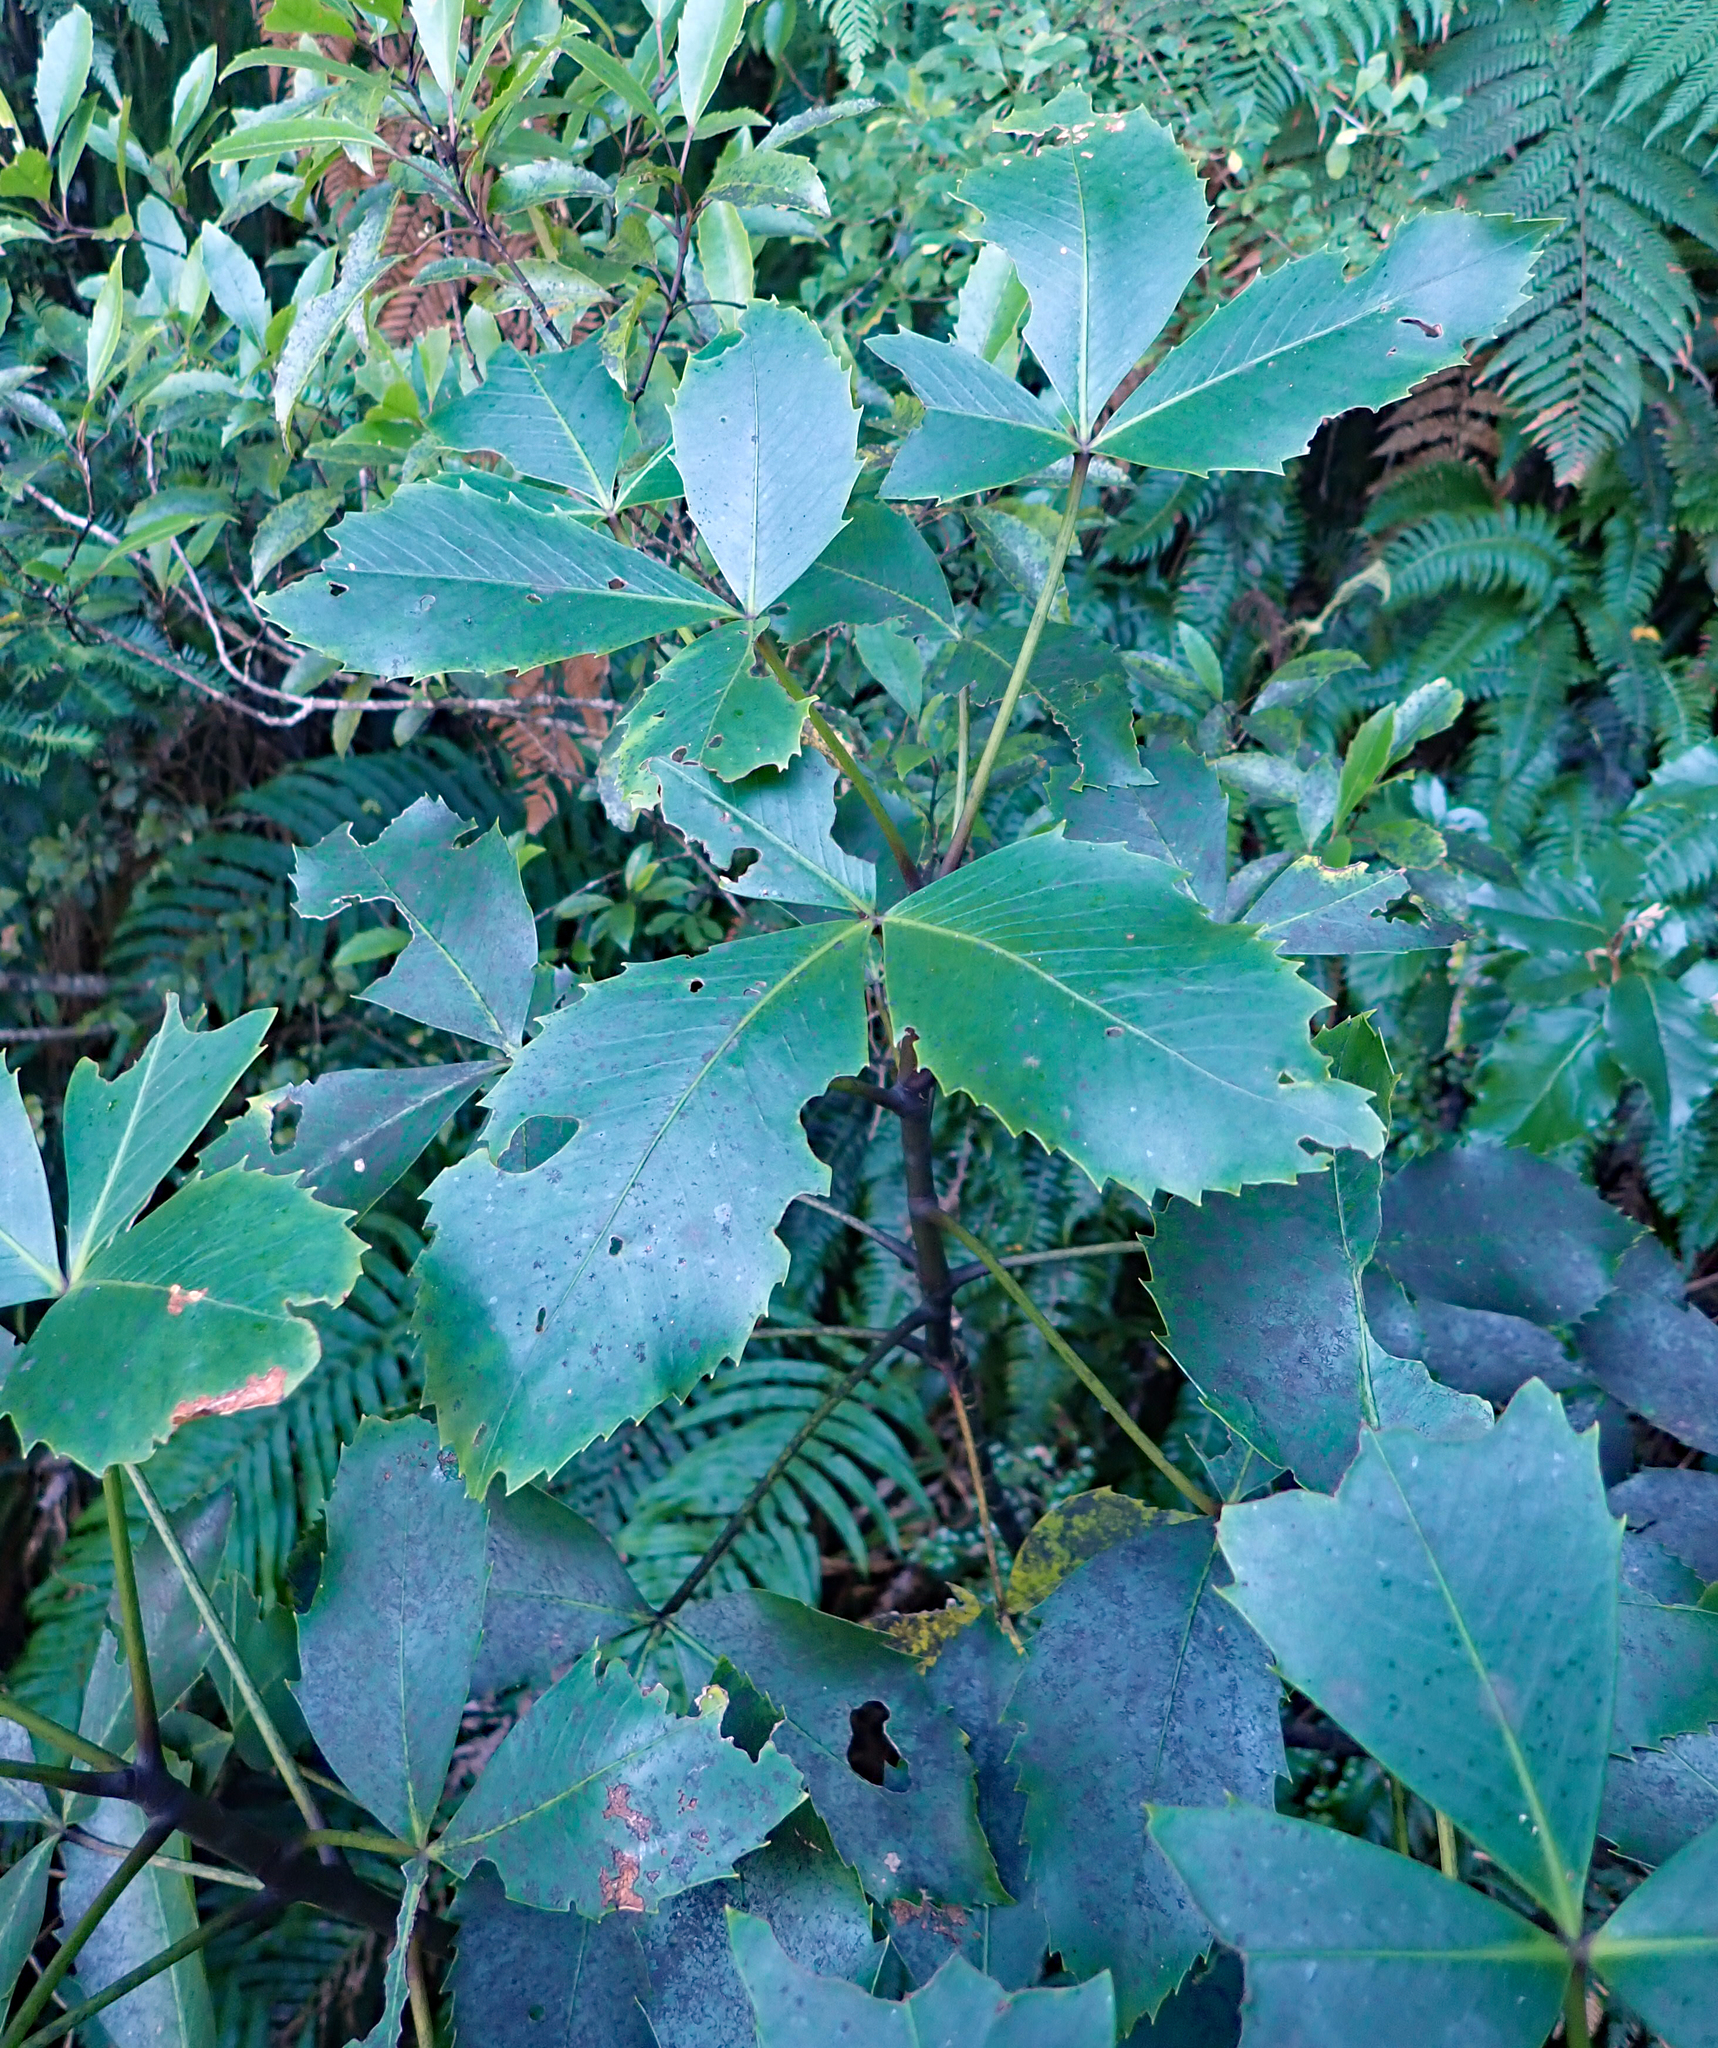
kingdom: Plantae
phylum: Tracheophyta
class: Magnoliopsida
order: Apiales
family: Araliaceae
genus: Neopanax
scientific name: Neopanax colensoi
